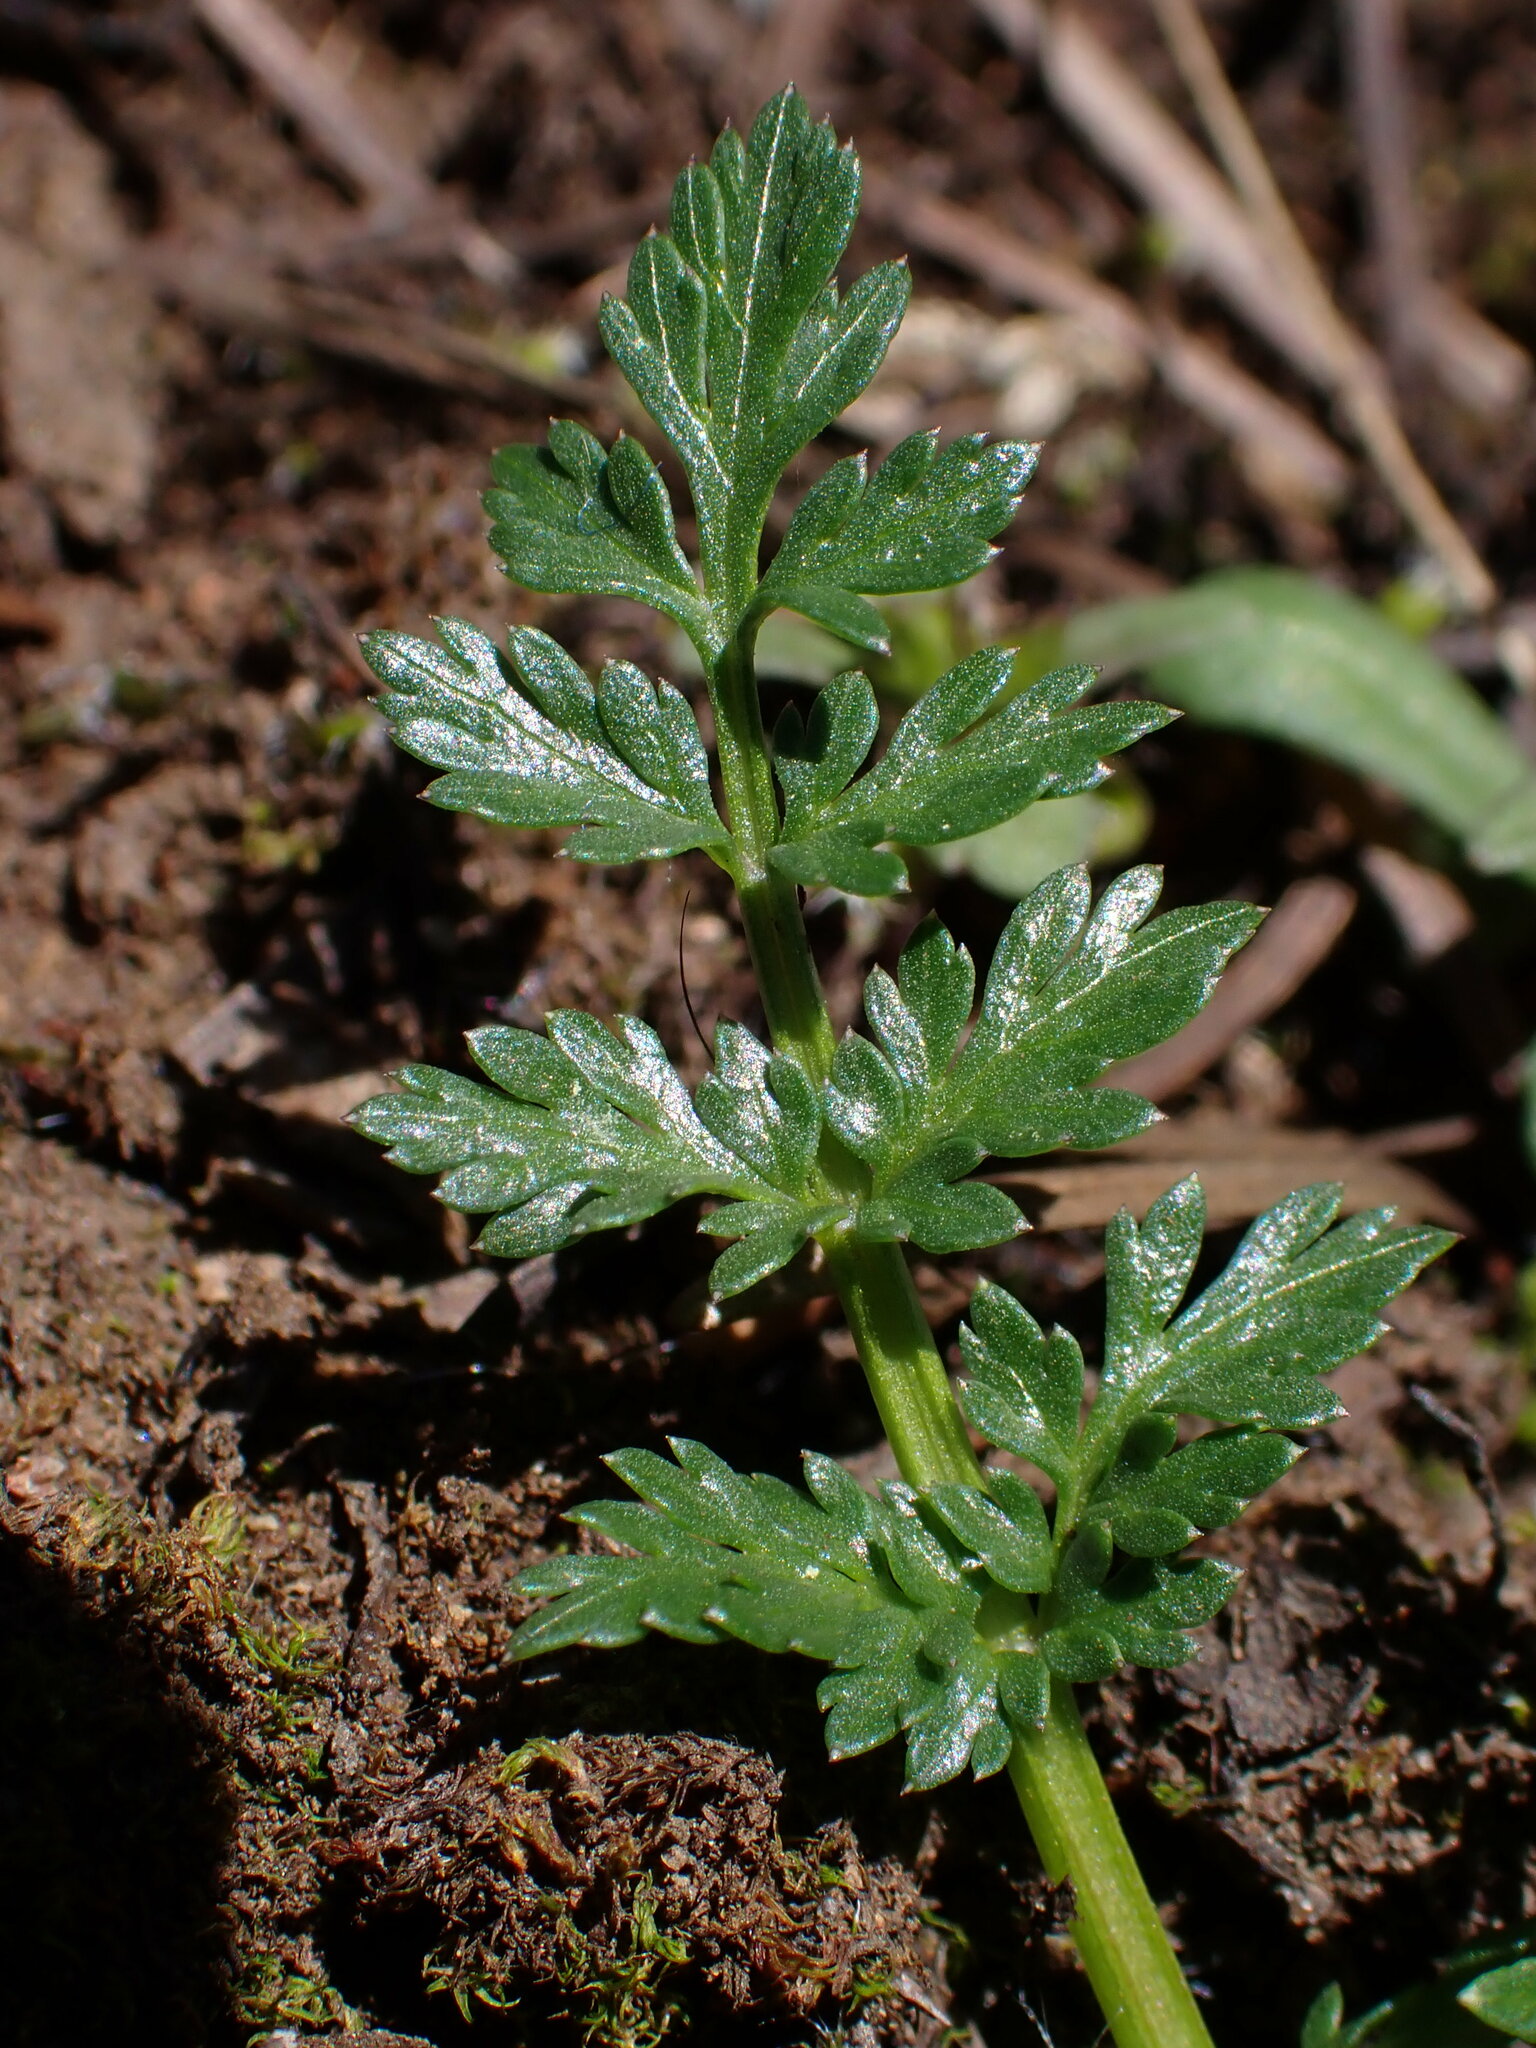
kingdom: Plantae
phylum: Tracheophyta
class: Magnoliopsida
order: Apiales
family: Apiaceae
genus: Lomatium
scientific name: Lomatium hallii
